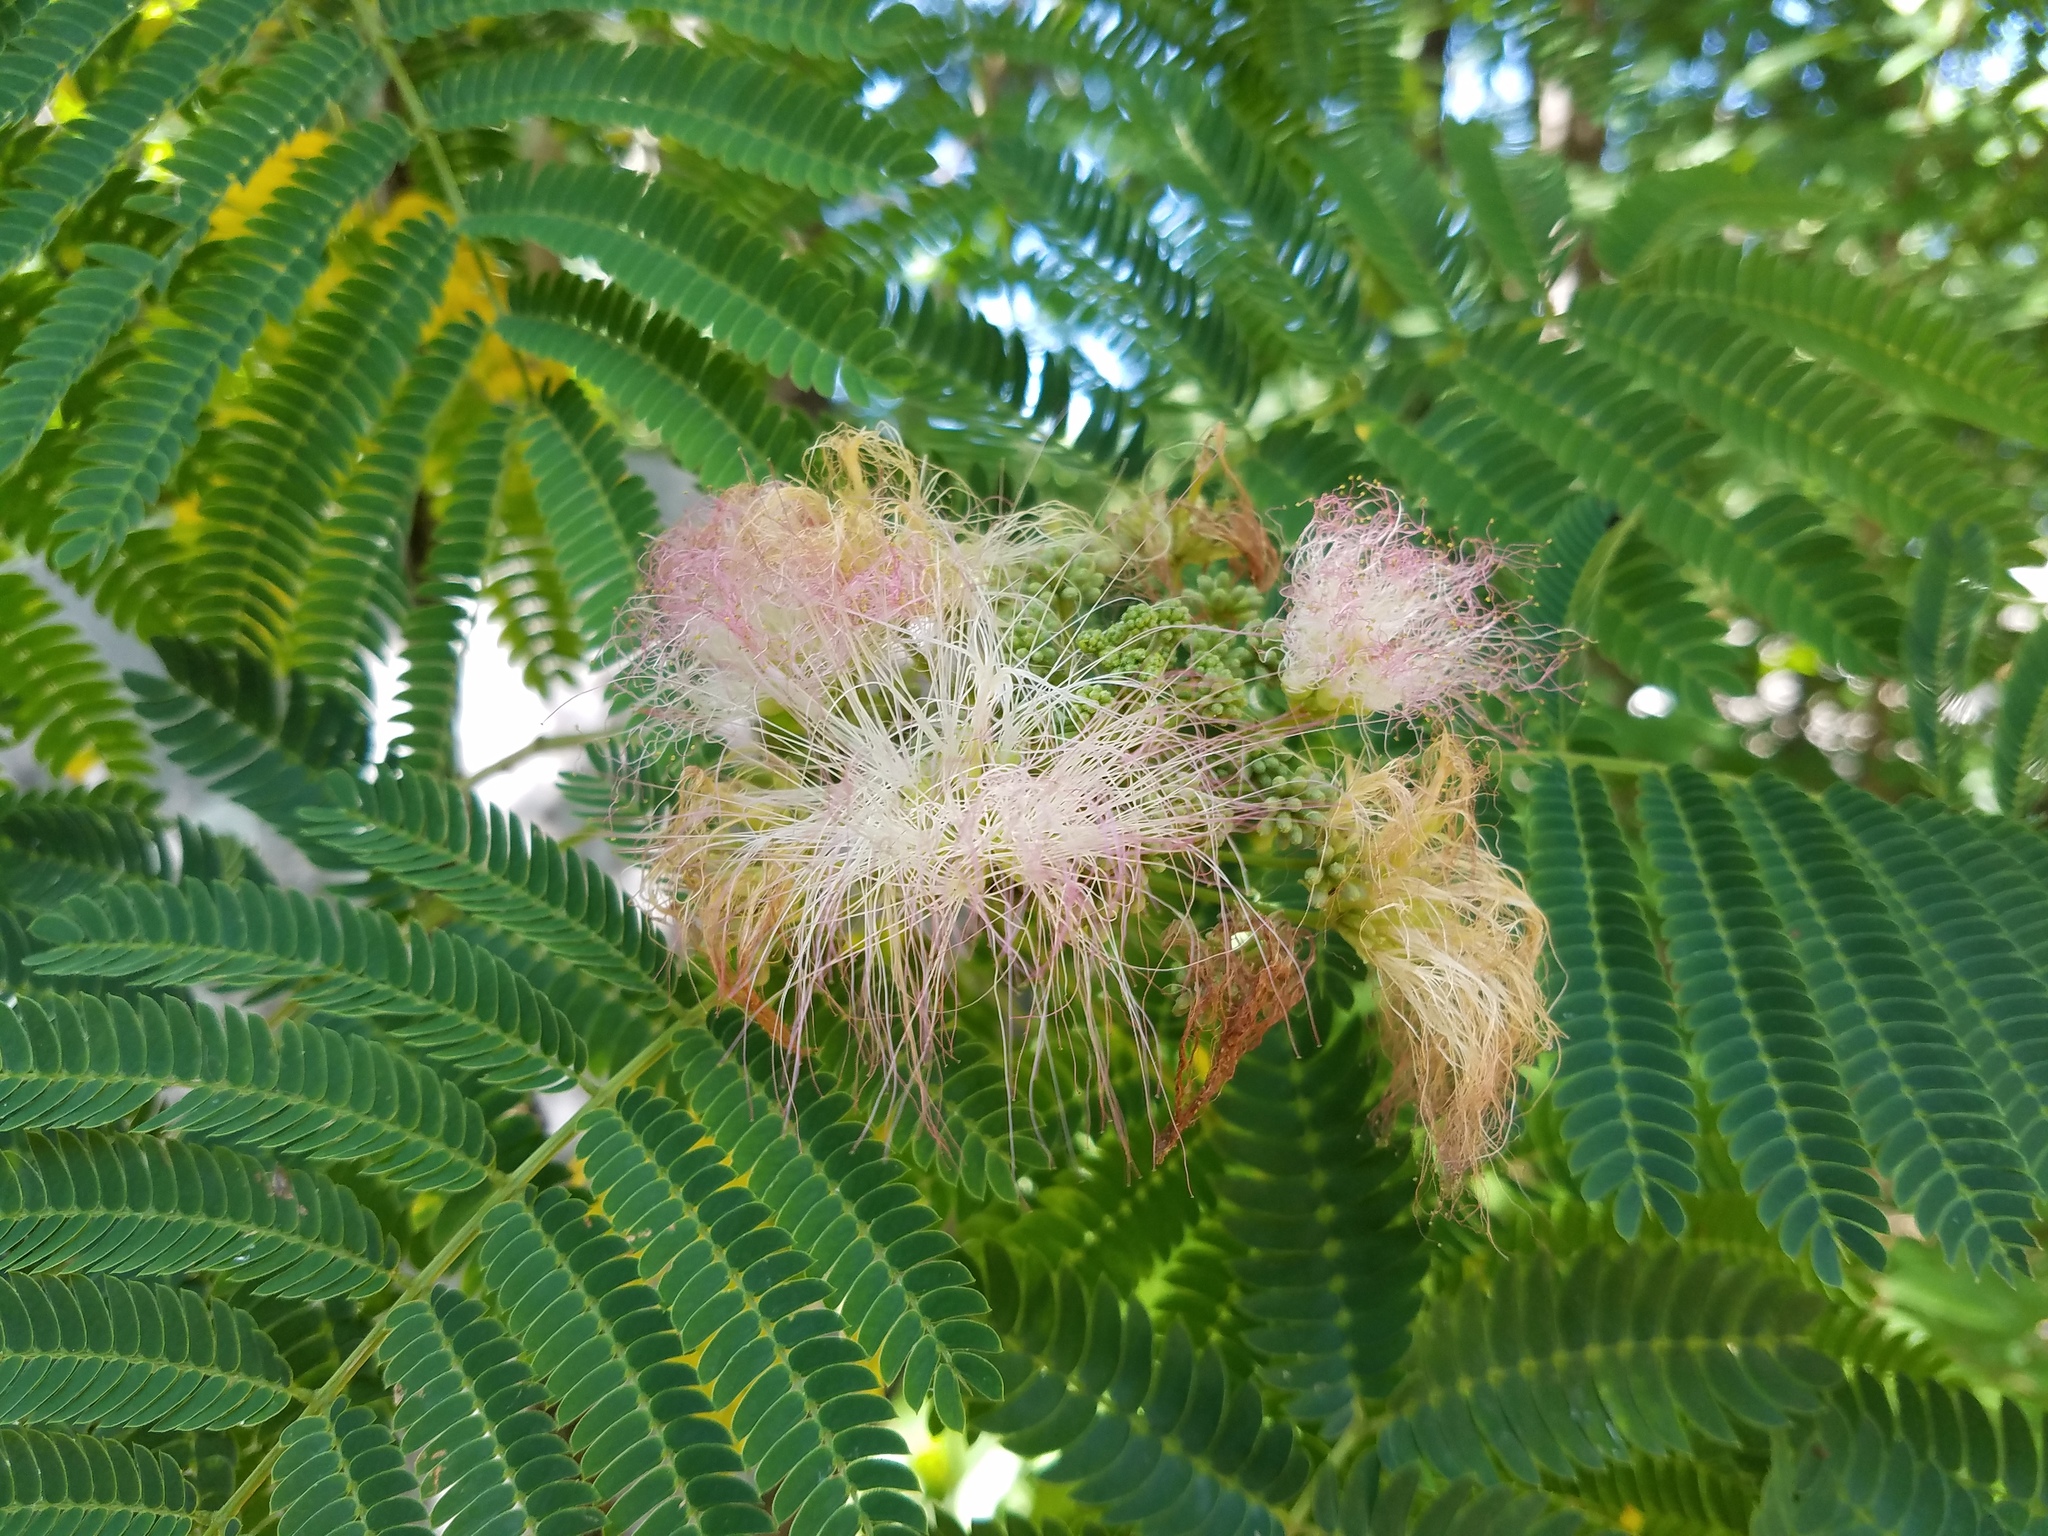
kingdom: Plantae
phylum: Tracheophyta
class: Magnoliopsida
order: Fabales
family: Fabaceae
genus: Albizia
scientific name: Albizia julibrissin
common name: Silktree
